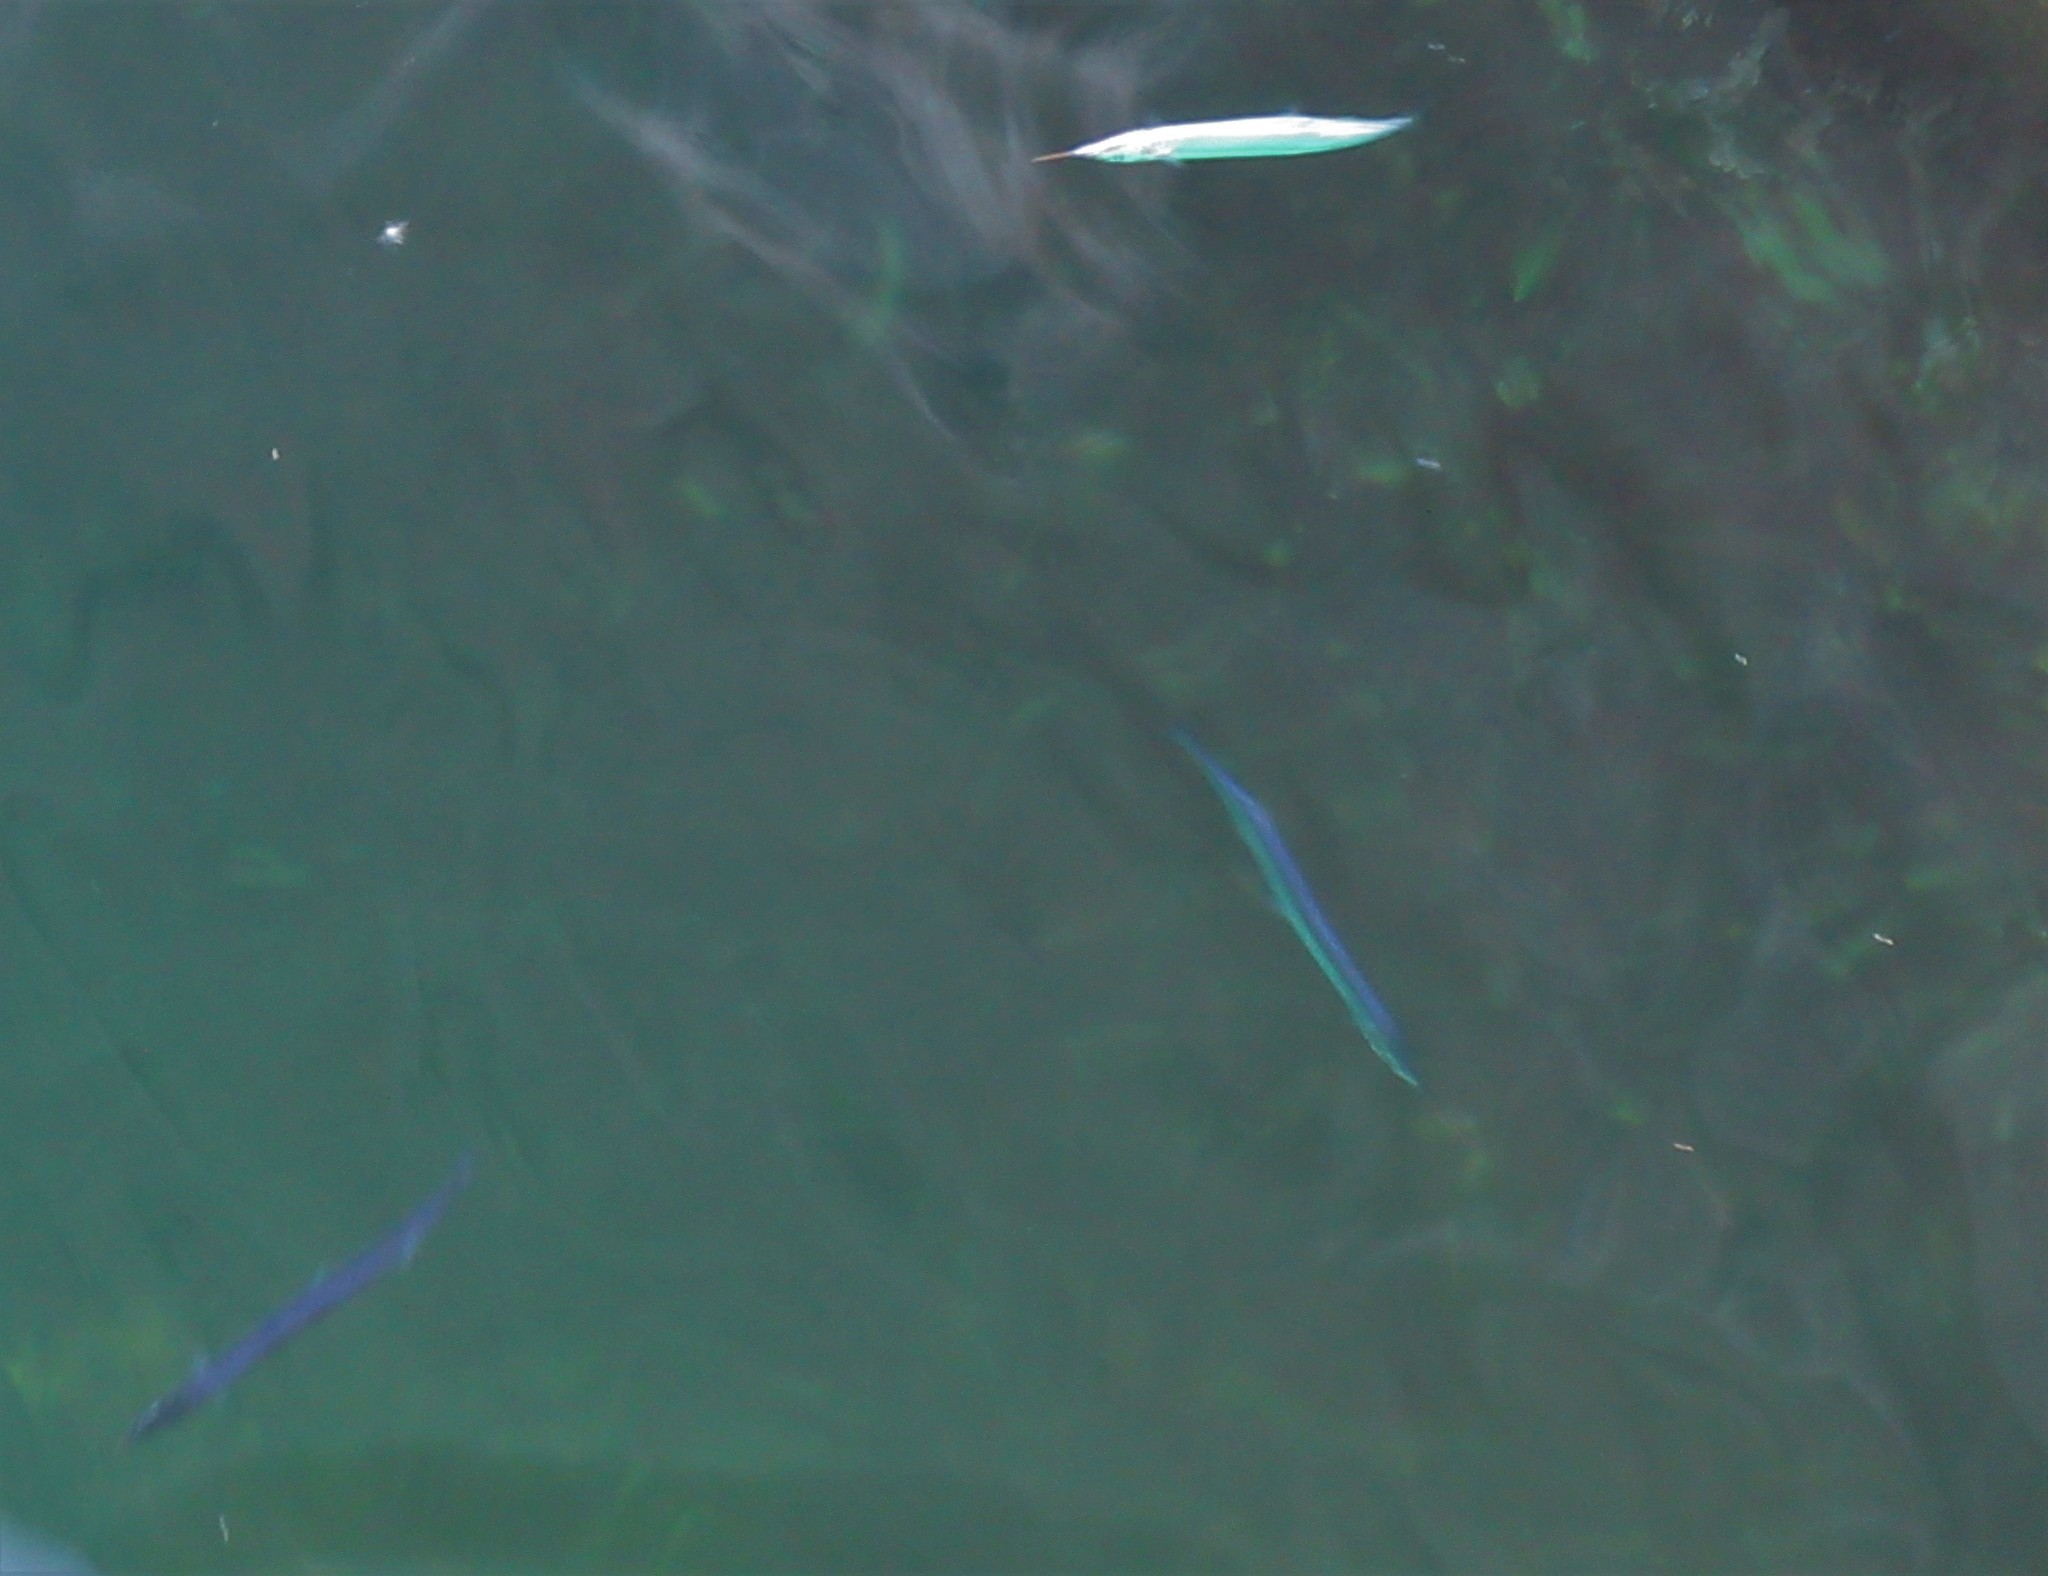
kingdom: Animalia
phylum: Chordata
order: Beloniformes
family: Scomberesocidae
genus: Scomberesox
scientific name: Scomberesox saurus
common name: Skipper
